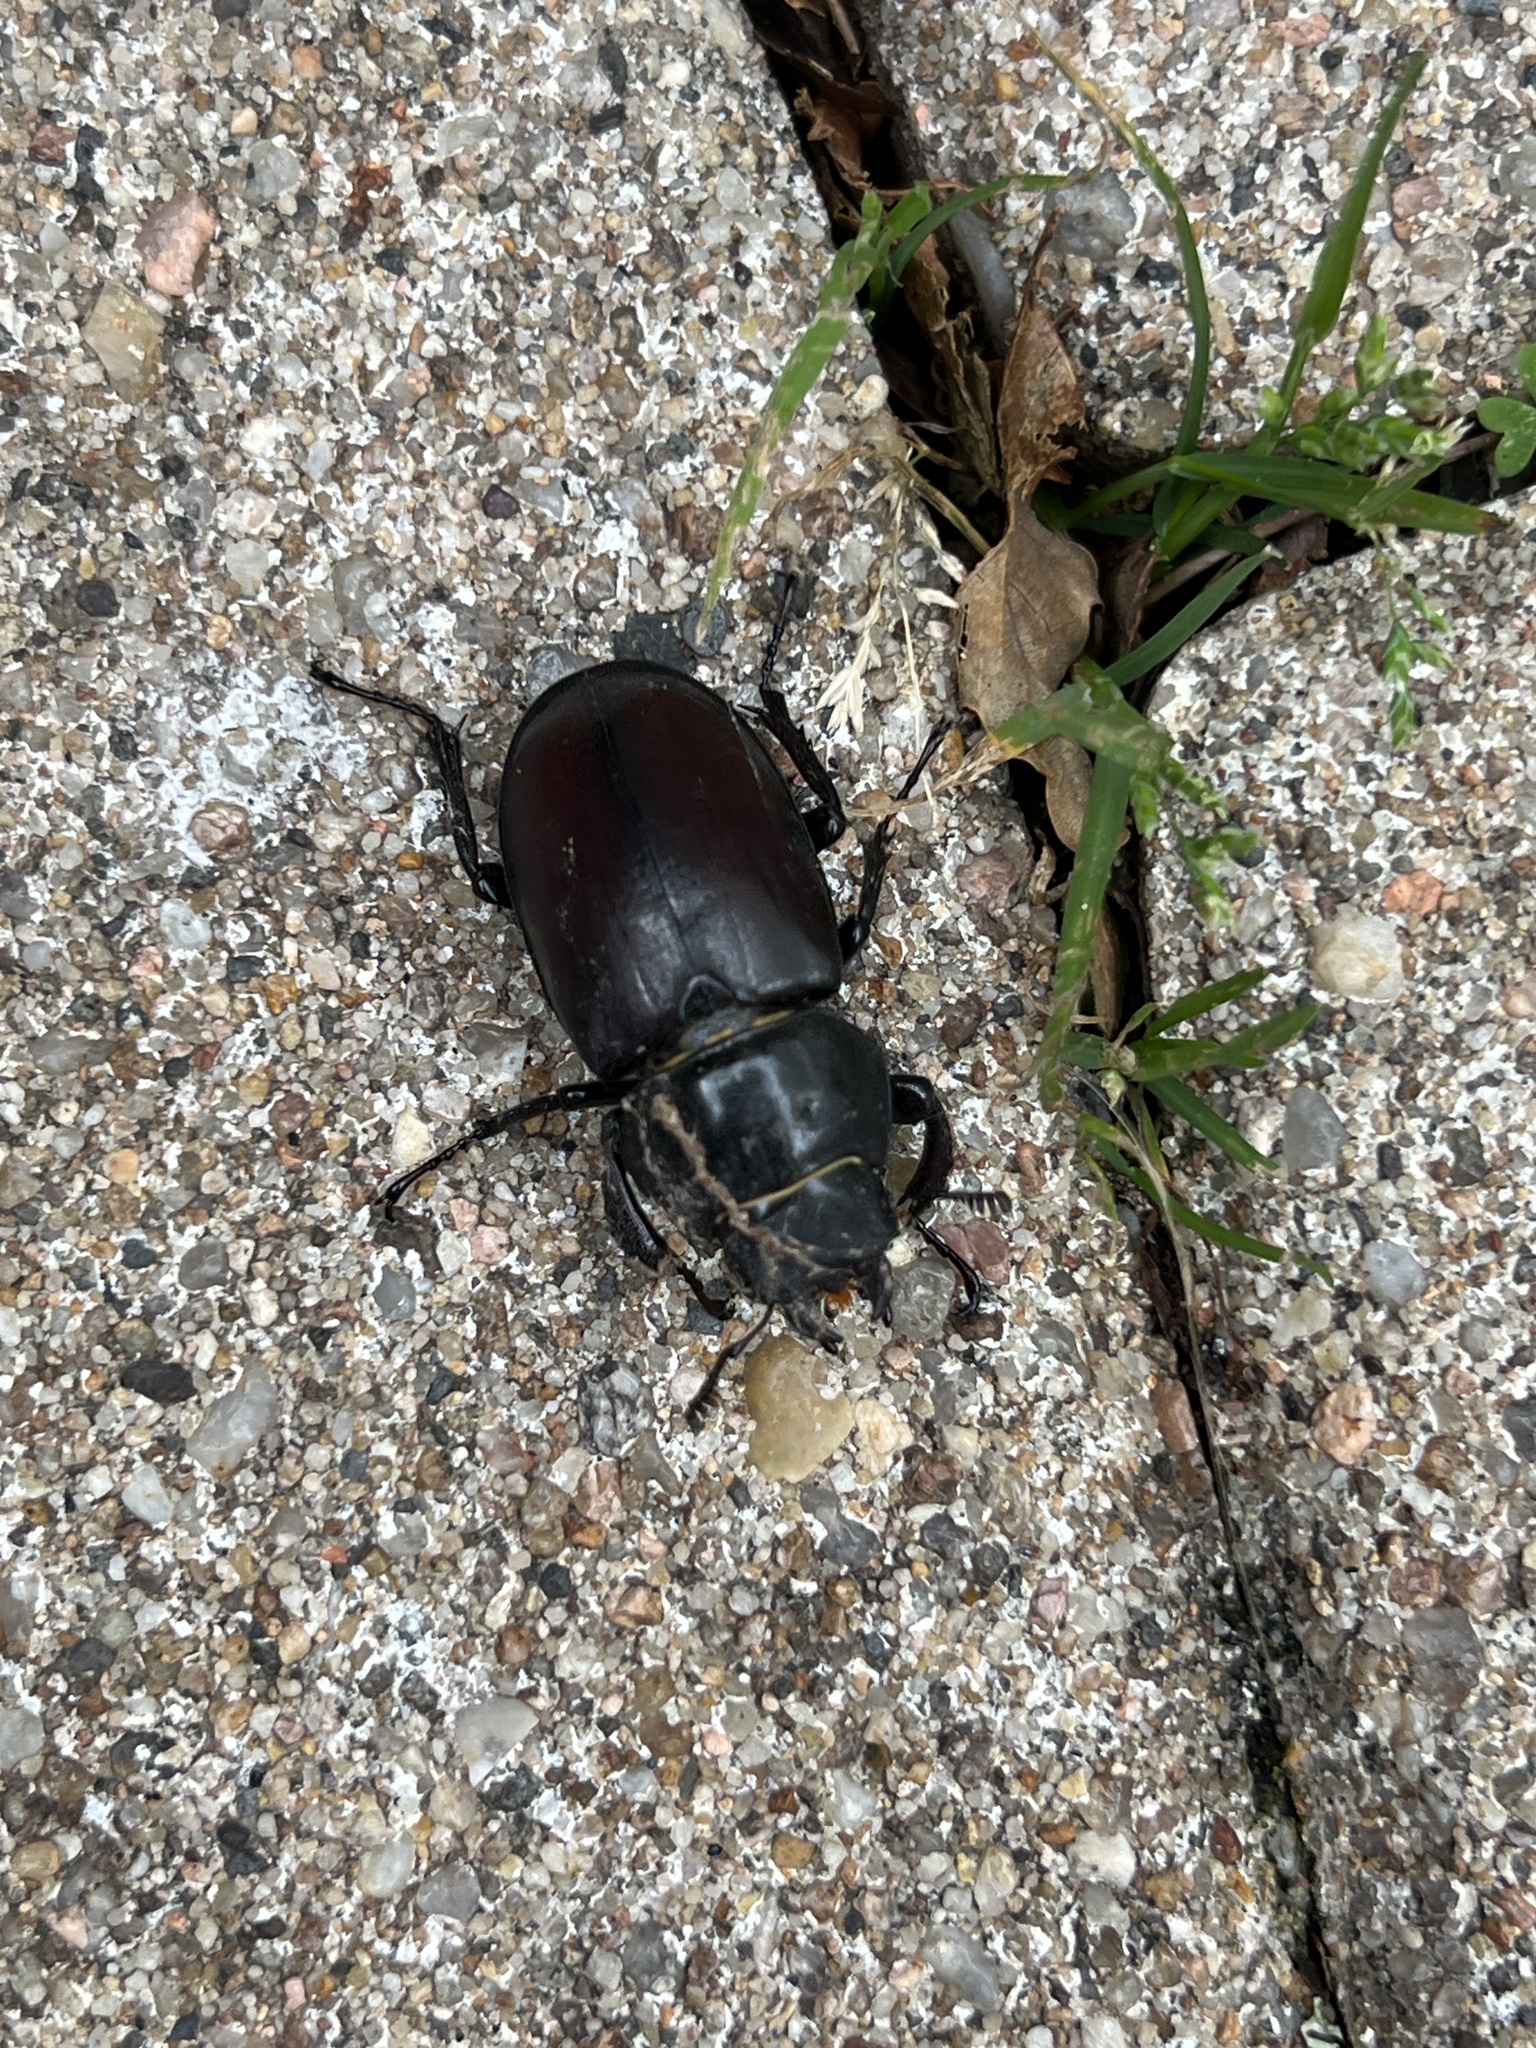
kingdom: Animalia
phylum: Arthropoda
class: Insecta
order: Coleoptera
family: Lucanidae
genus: Lucanus
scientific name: Lucanus cervus
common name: Stag beetle
